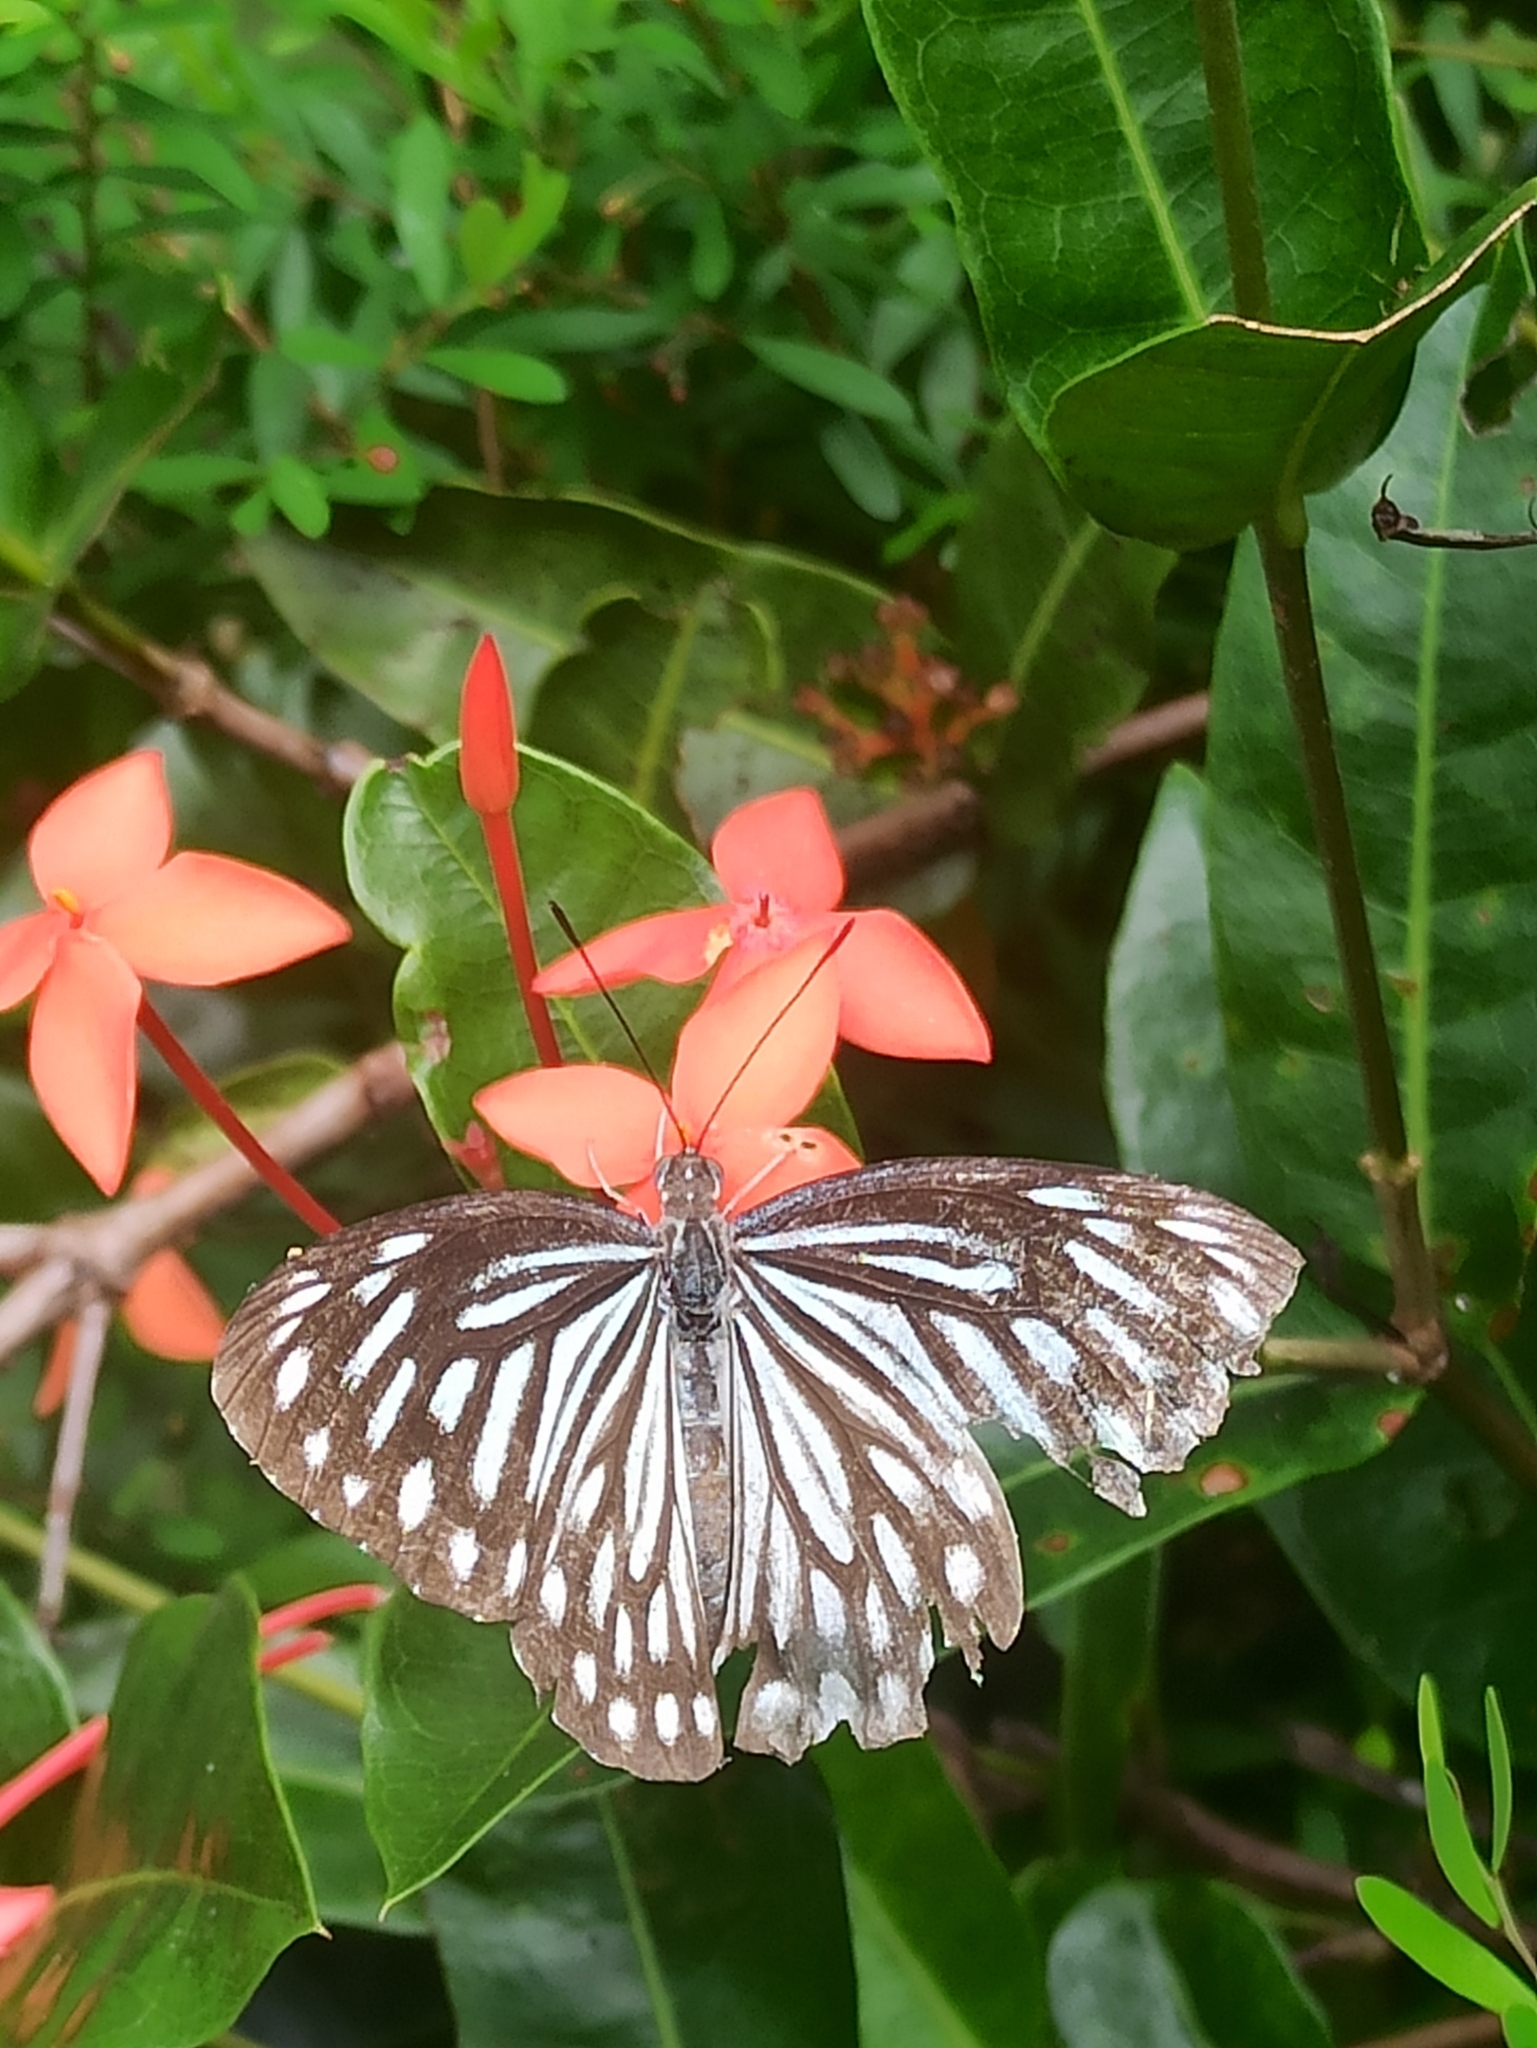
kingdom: Animalia
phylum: Arthropoda
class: Insecta
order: Lepidoptera
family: Pieridae
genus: Pareronia
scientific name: Pareronia hippia
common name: Indian wanderer
